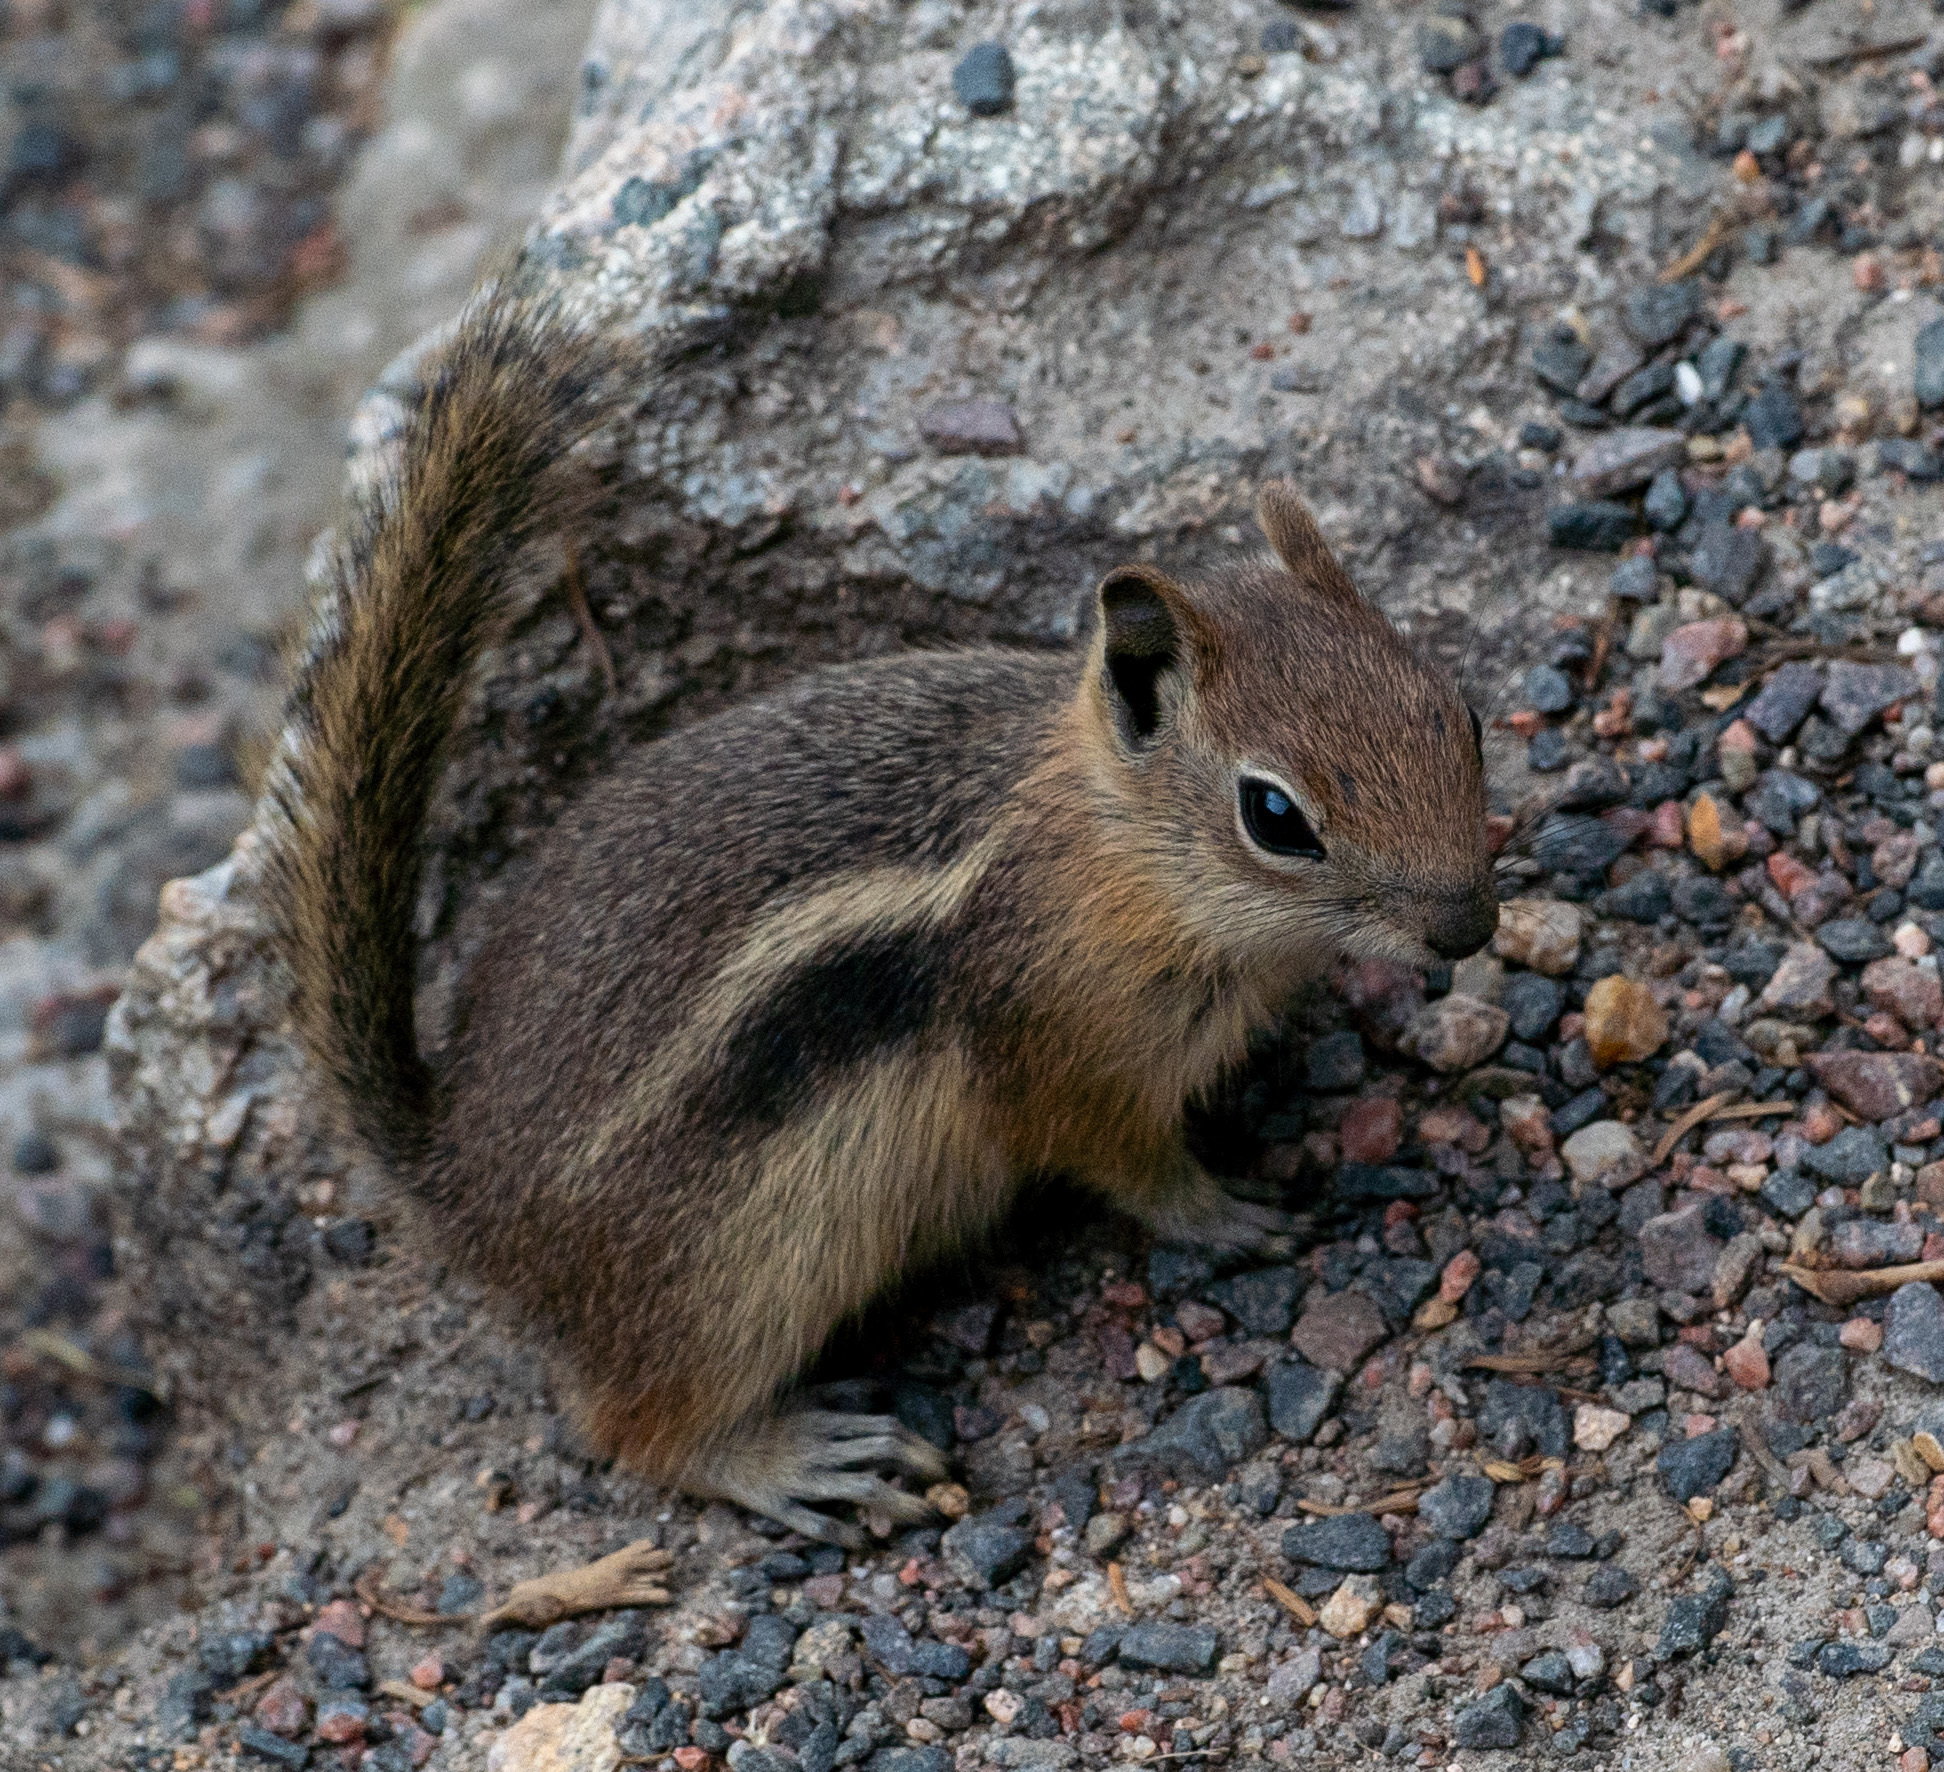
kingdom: Animalia
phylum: Chordata
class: Mammalia
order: Rodentia
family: Sciuridae
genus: Callospermophilus
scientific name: Callospermophilus lateralis
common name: Golden-mantled ground squirrel
